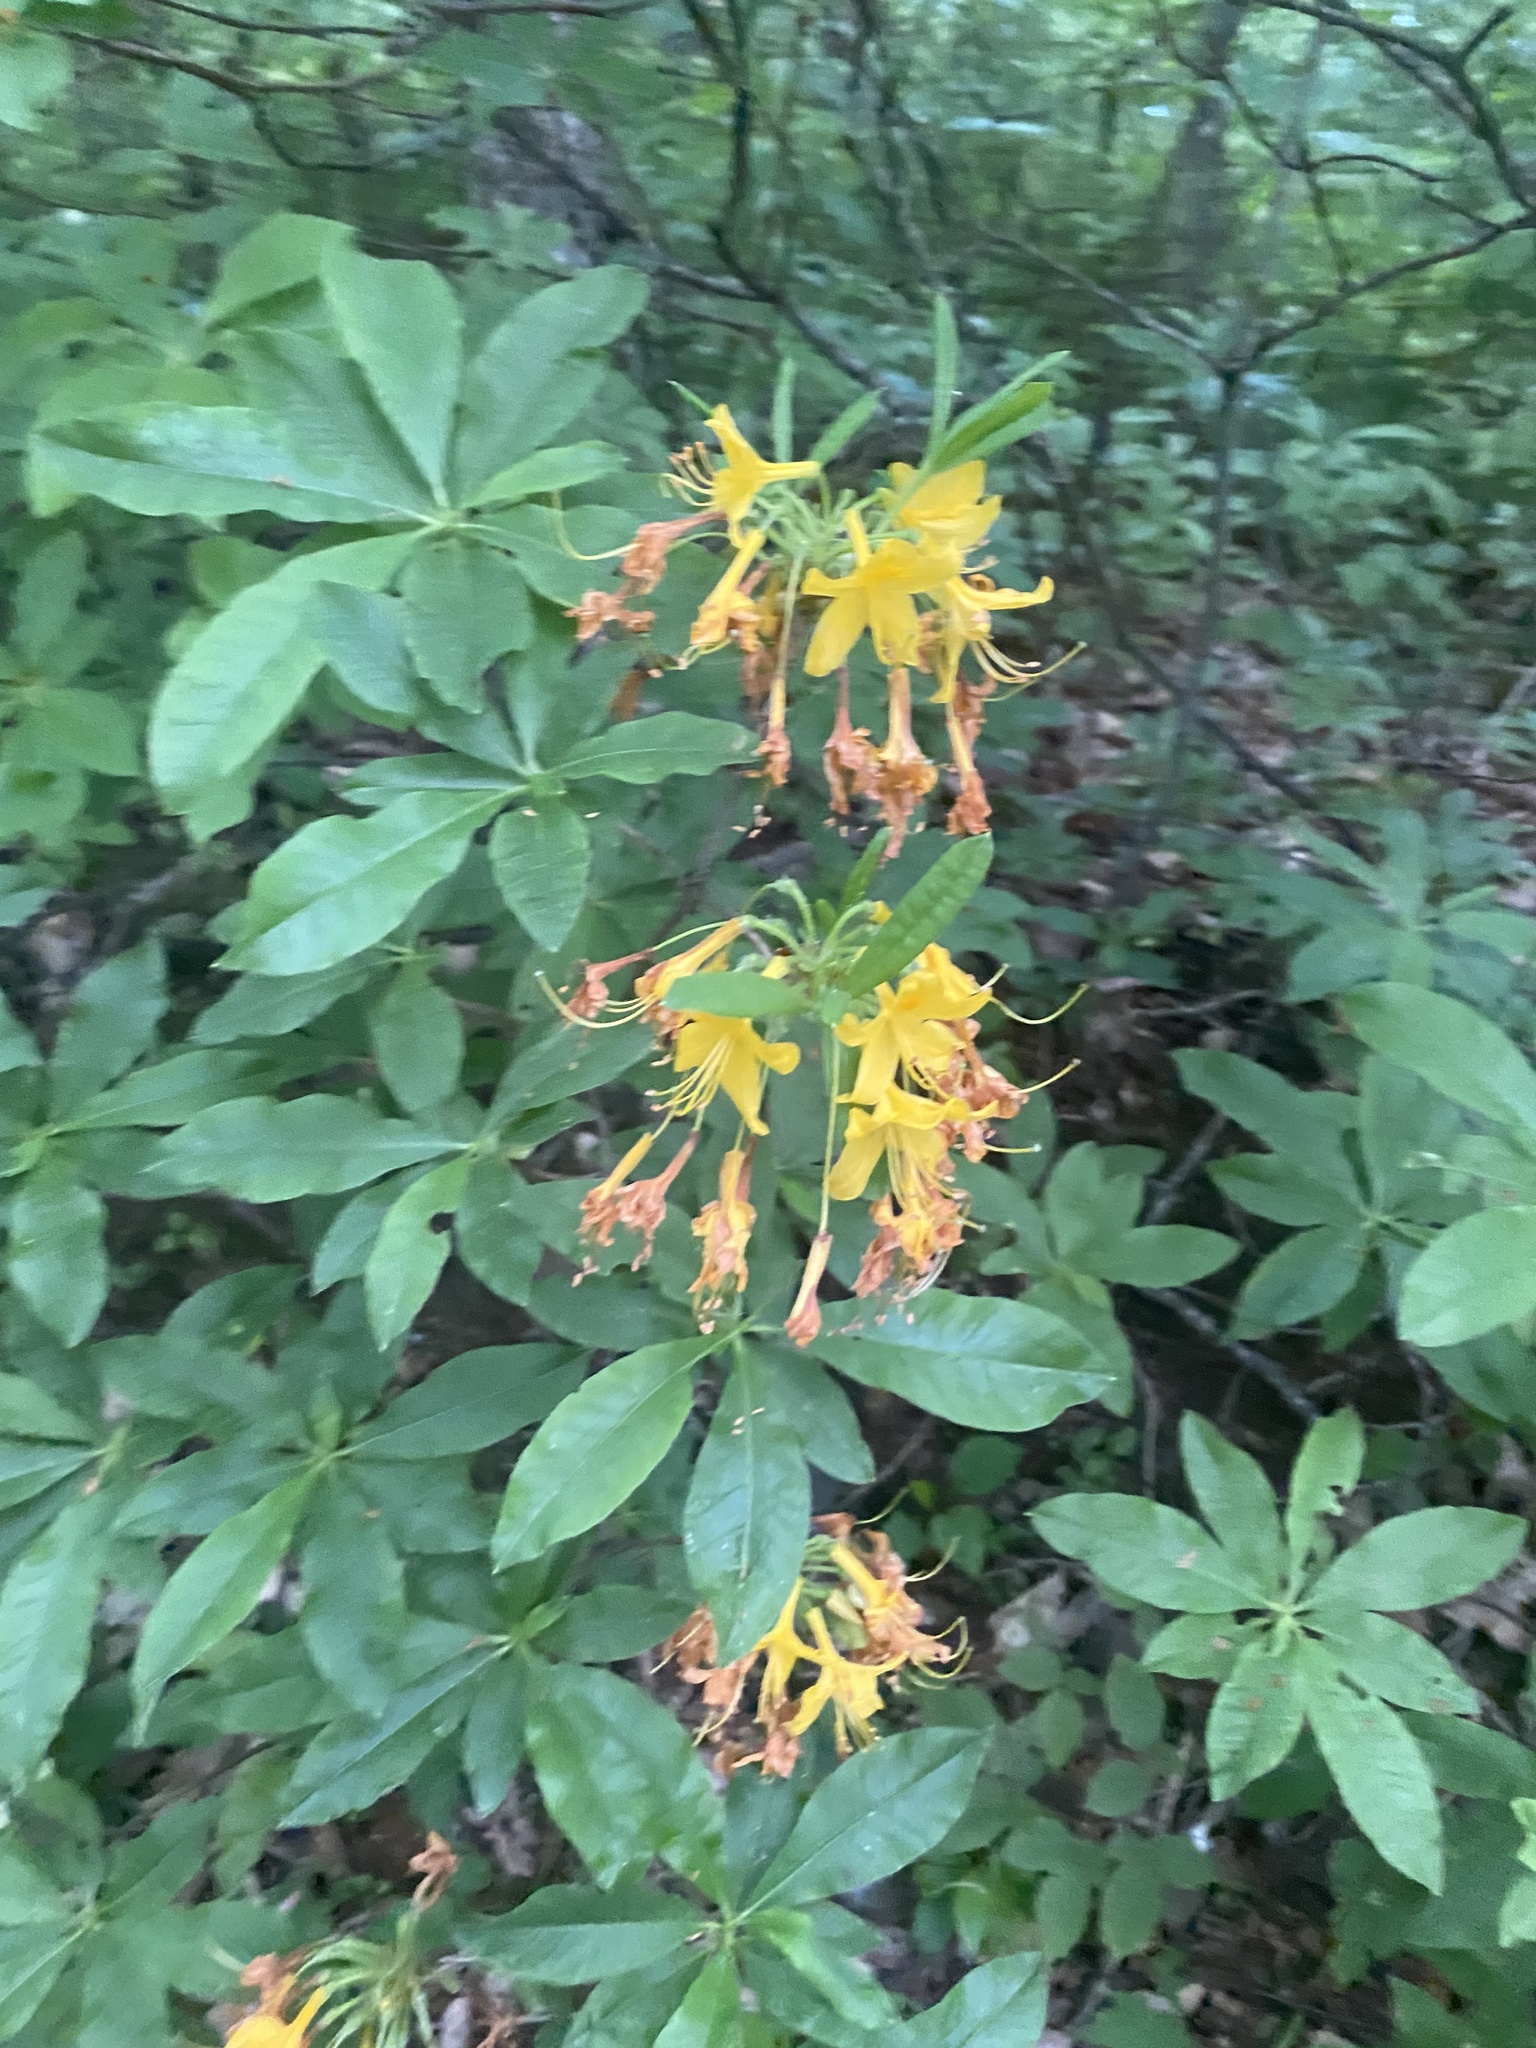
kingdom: Plantae
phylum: Tracheophyta
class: Magnoliopsida
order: Ericales
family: Ericaceae
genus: Rhododendron
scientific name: Rhododendron luteum
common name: Yellow azalea
